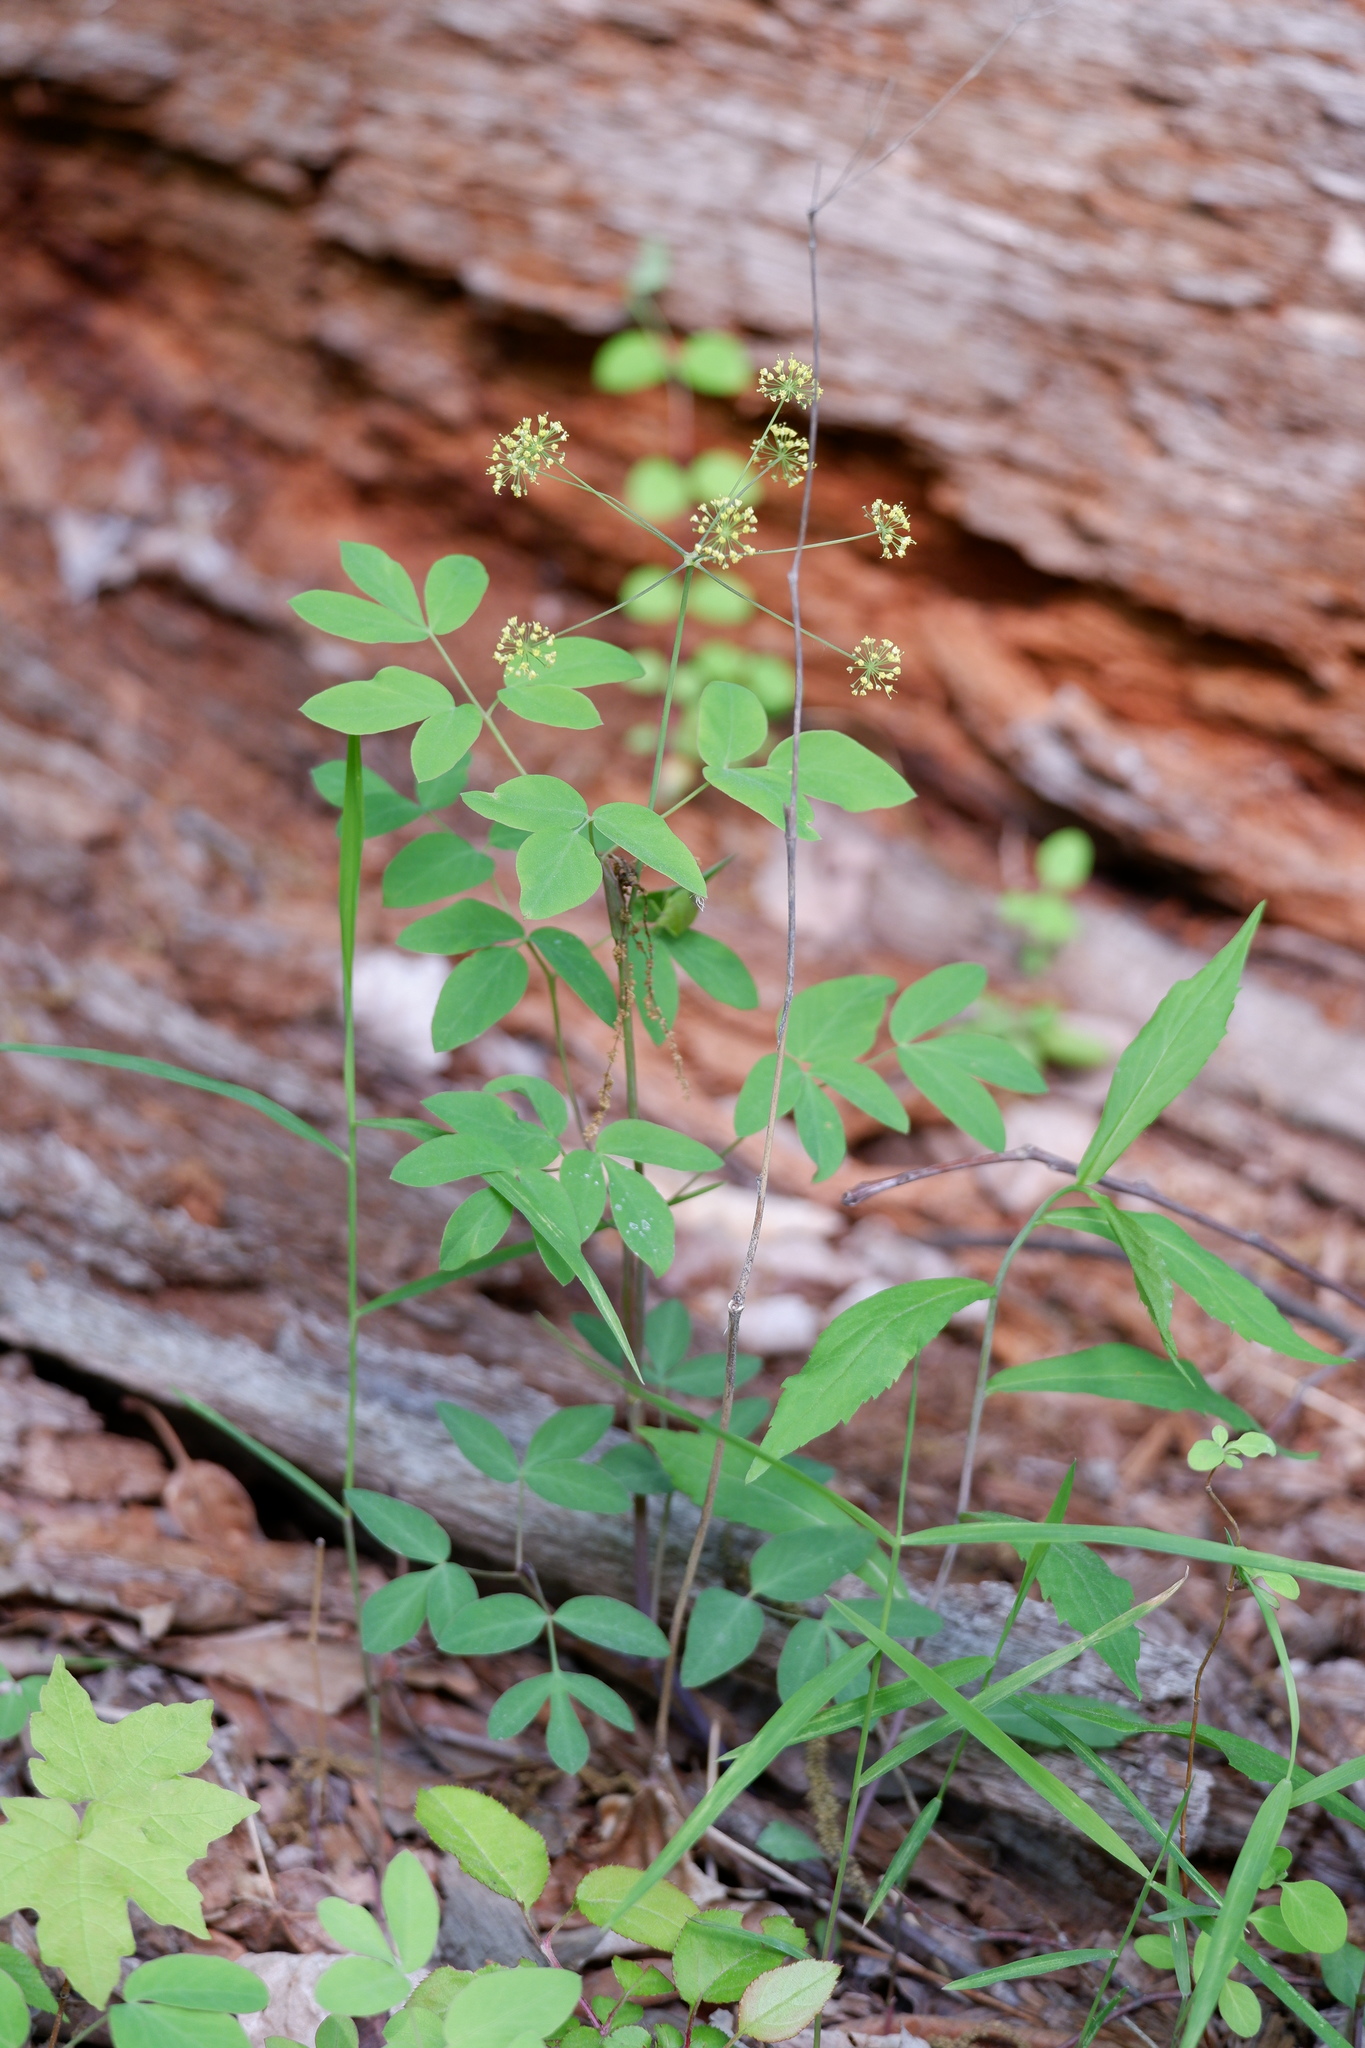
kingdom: Plantae
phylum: Tracheophyta
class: Magnoliopsida
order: Apiales
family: Apiaceae
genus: Taenidia
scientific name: Taenidia integerrima
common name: Golden alexander
